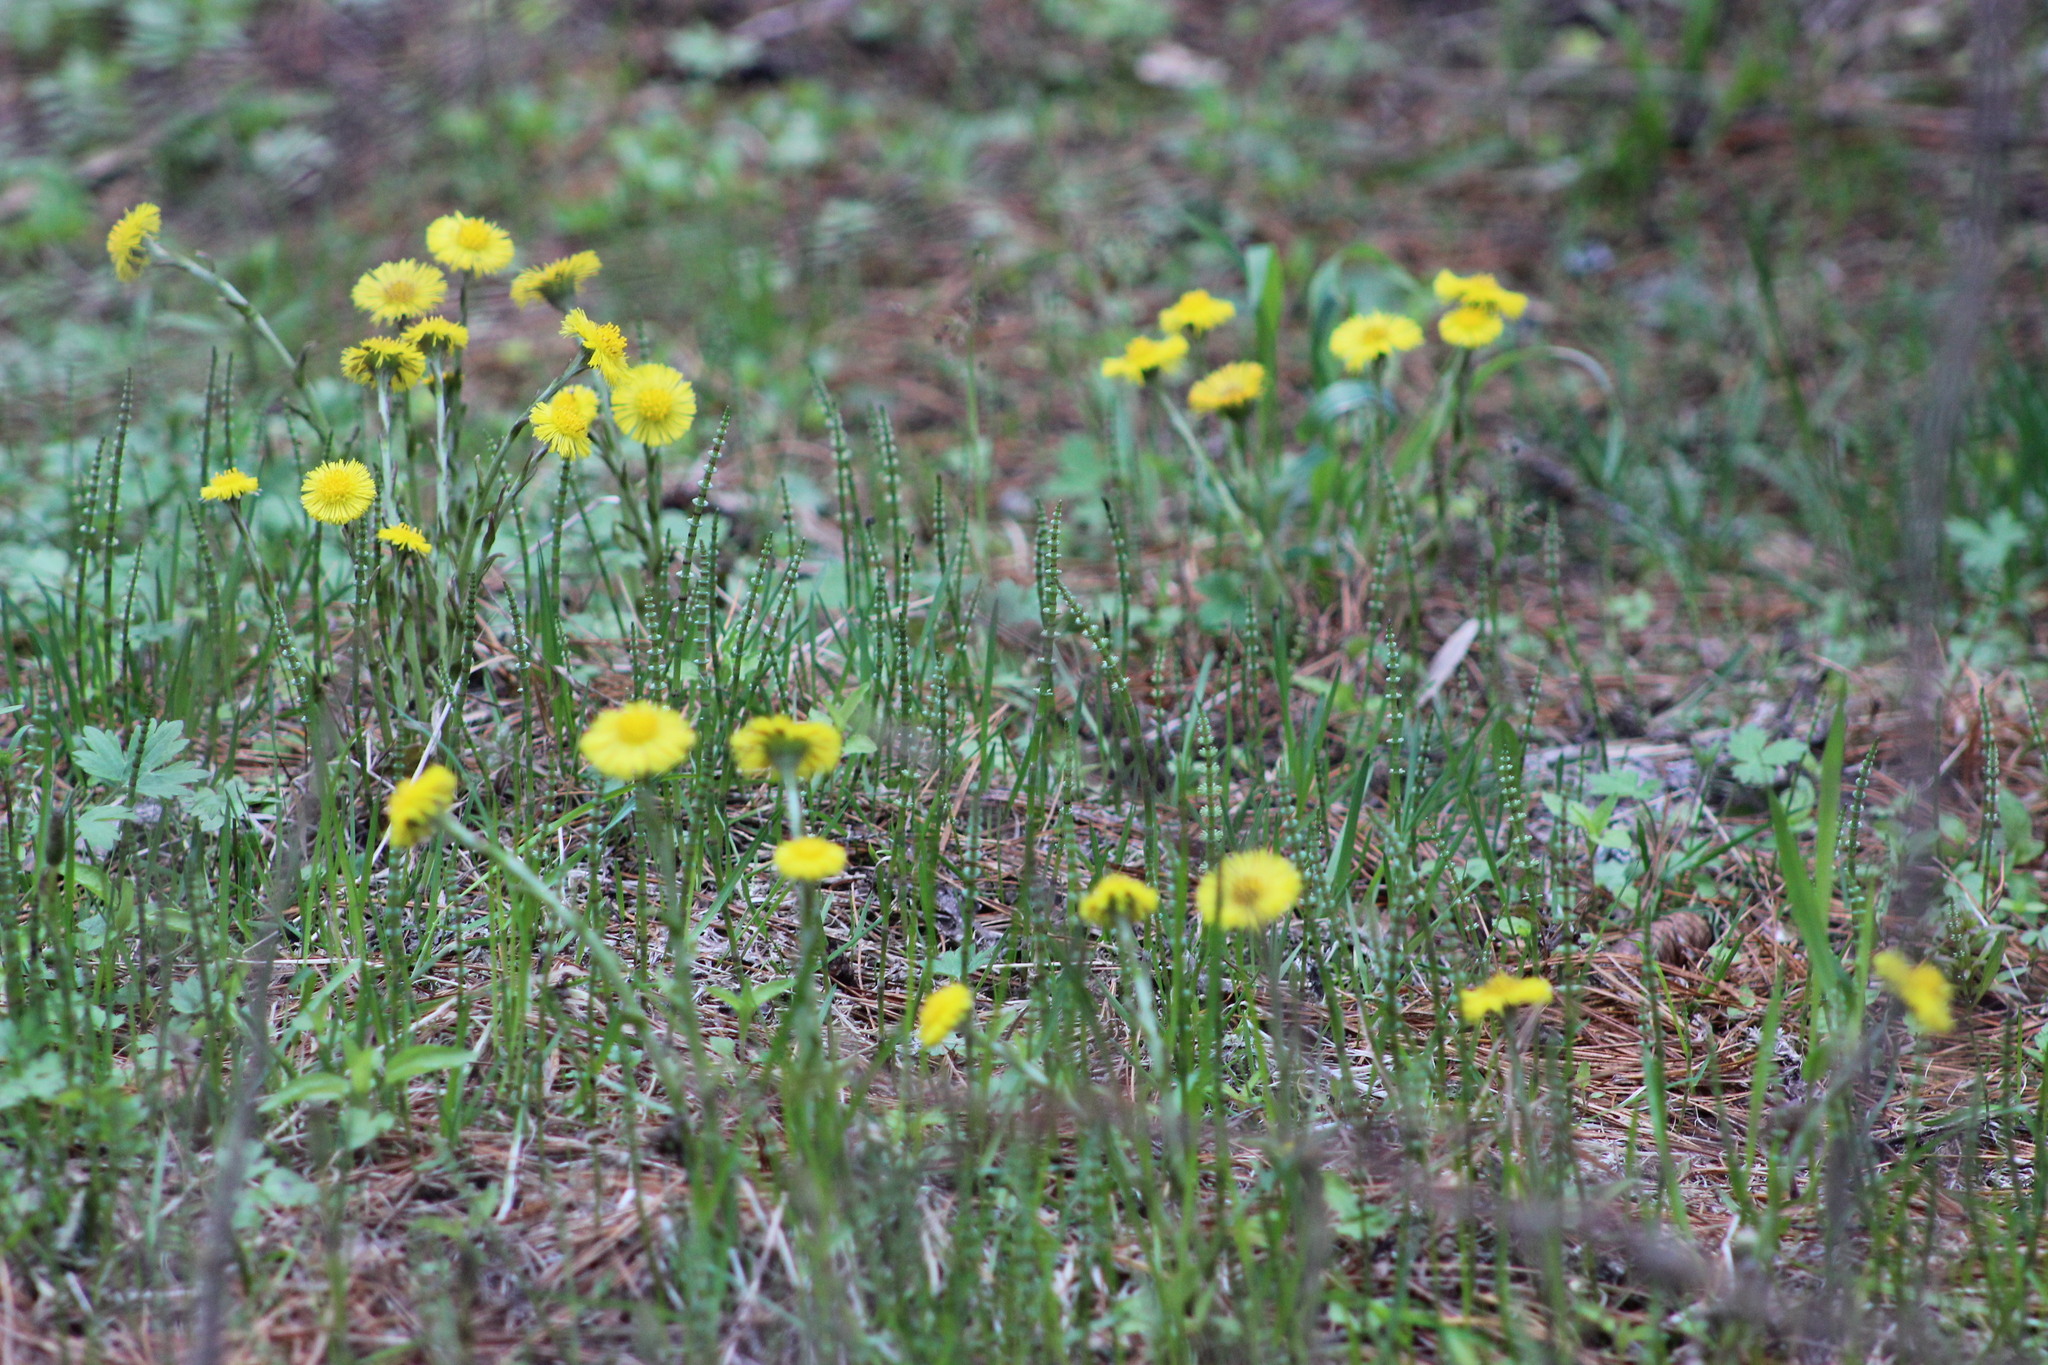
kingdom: Plantae
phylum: Tracheophyta
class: Magnoliopsida
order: Asterales
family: Asteraceae
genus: Tussilago
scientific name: Tussilago farfara
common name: Coltsfoot
